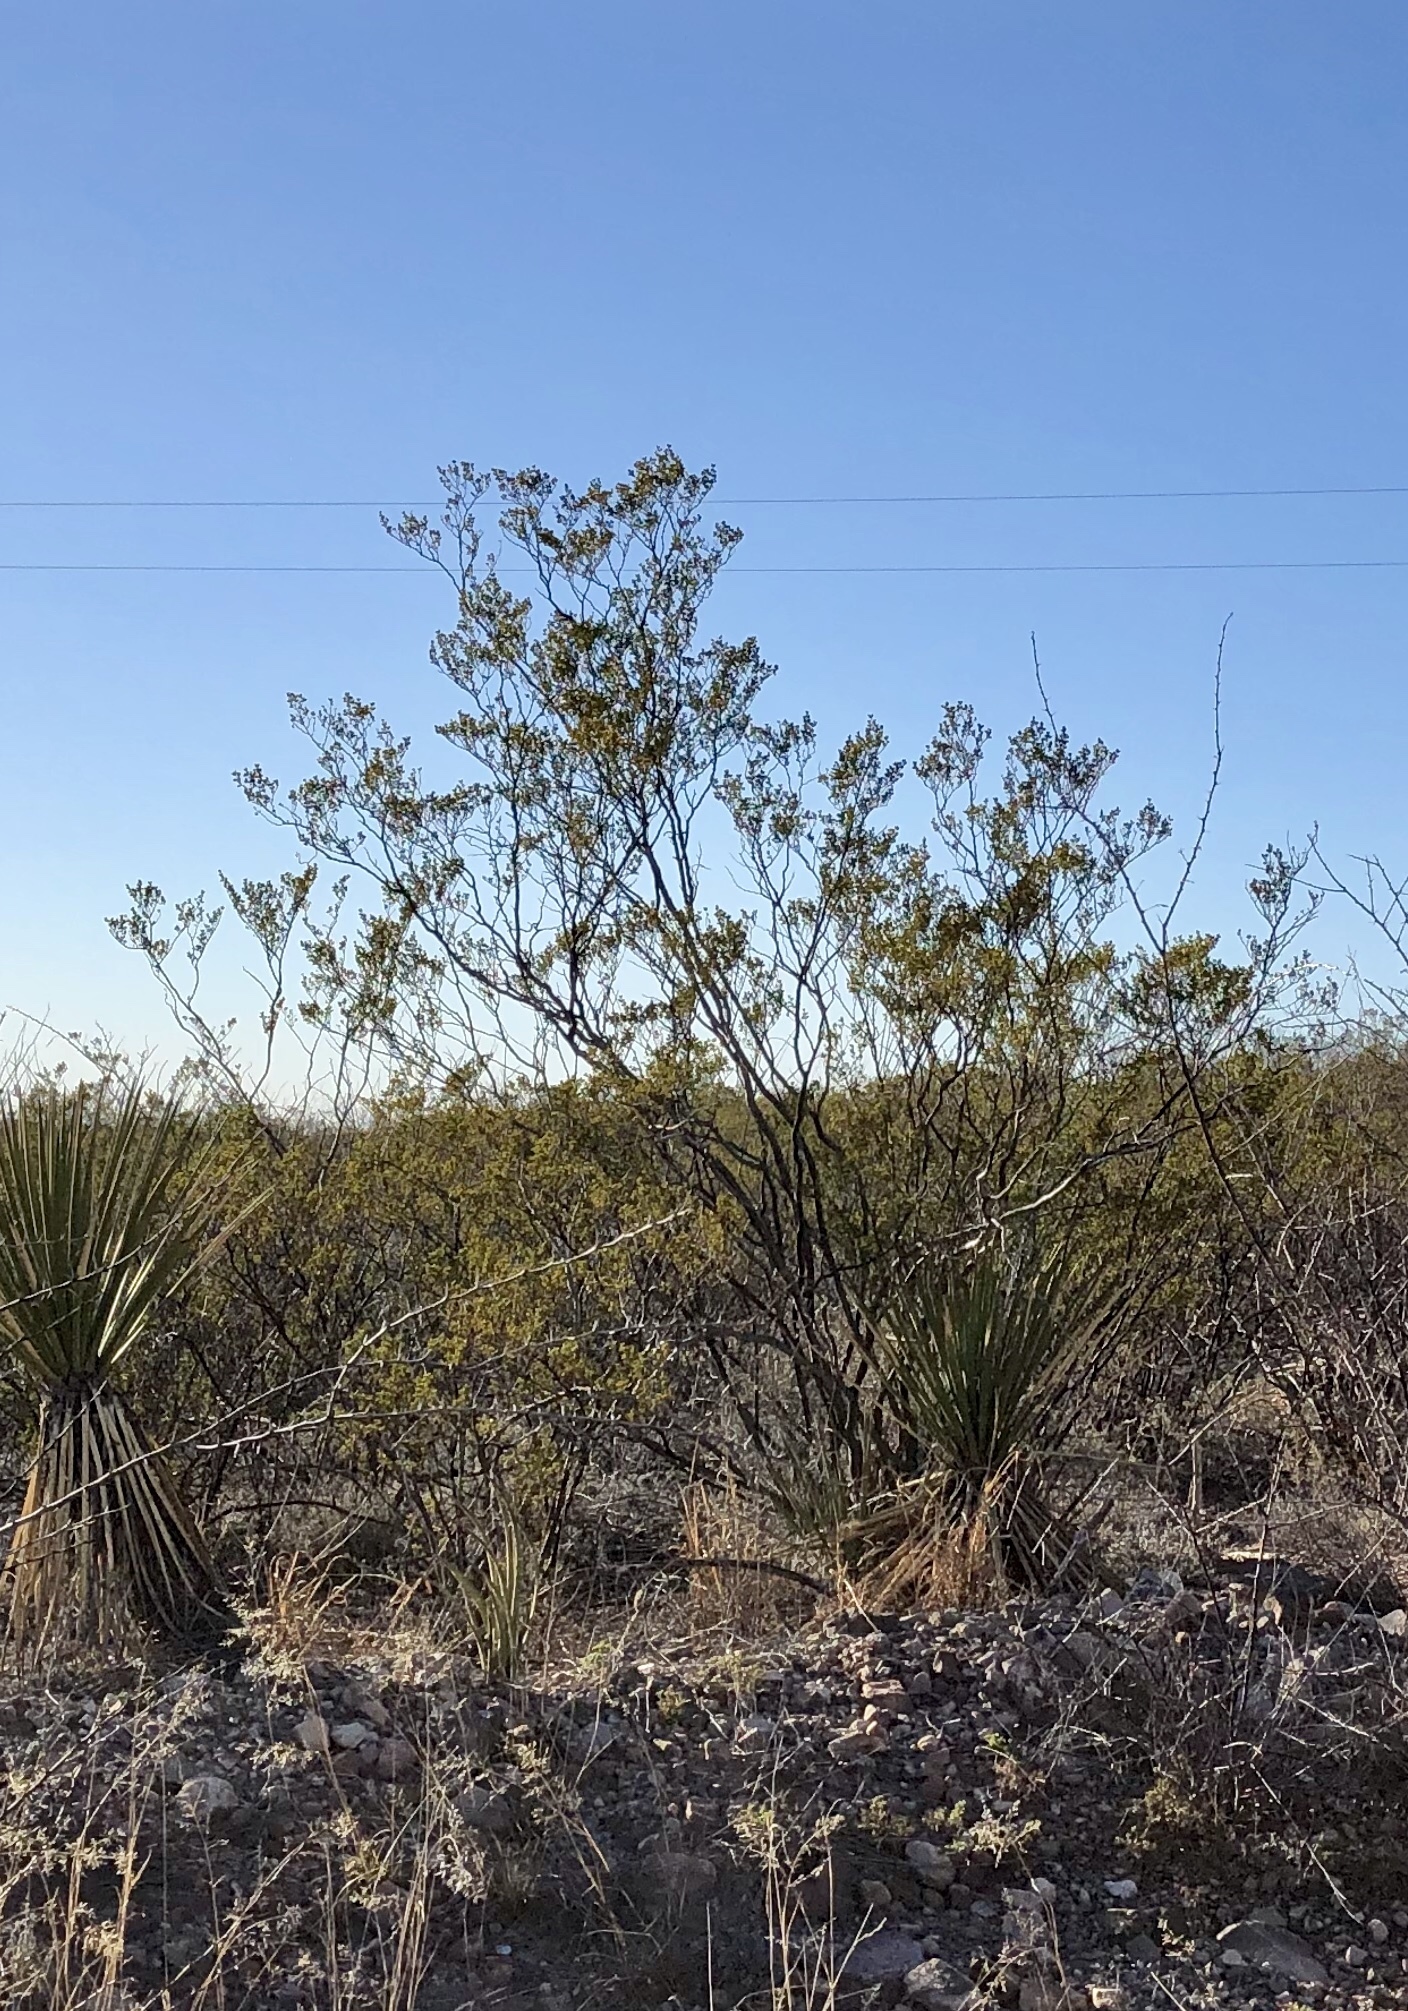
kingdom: Plantae
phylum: Tracheophyta
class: Magnoliopsida
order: Zygophyllales
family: Zygophyllaceae
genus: Larrea
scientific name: Larrea tridentata
